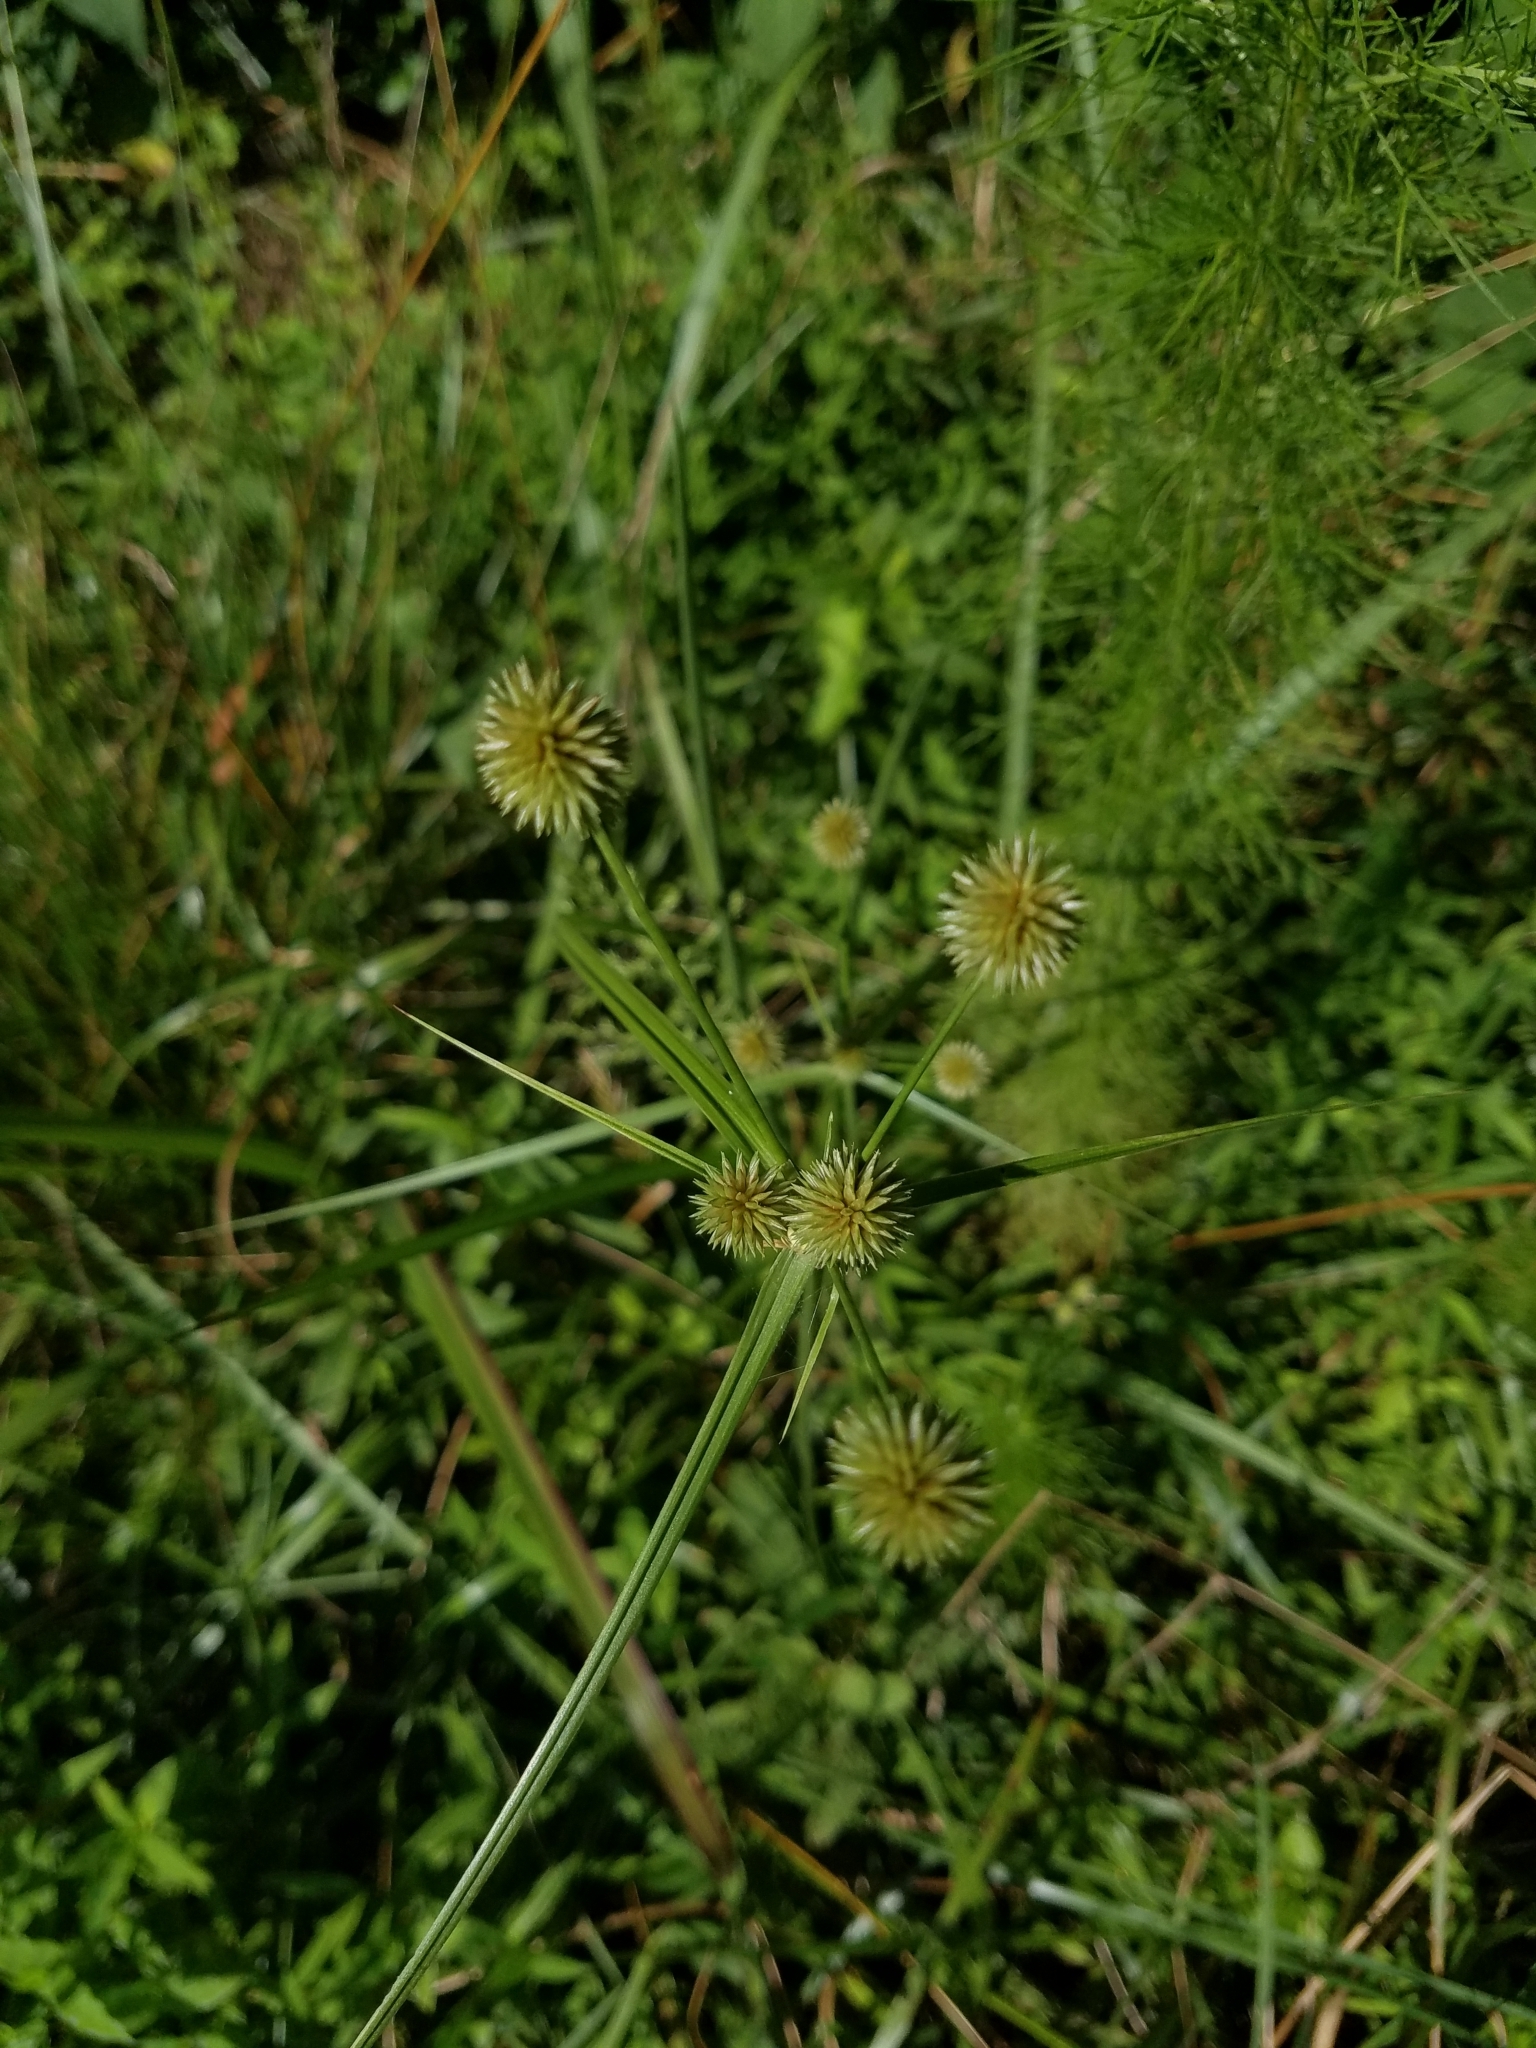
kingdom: Plantae
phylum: Tracheophyta
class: Liliopsida
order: Poales
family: Cyperaceae
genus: Cyperus
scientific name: Cyperus echinatus
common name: Teasel sedge
